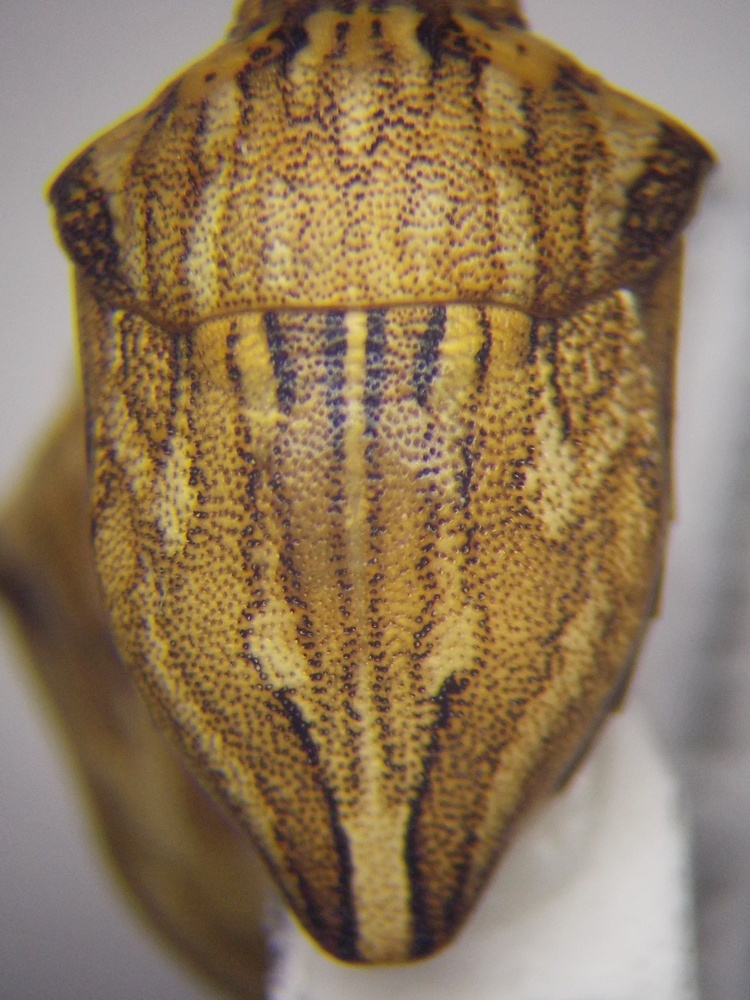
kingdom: Animalia
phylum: Arthropoda
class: Insecta
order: Hemiptera
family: Scutelleridae
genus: Odontotarsus
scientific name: Odontotarsus robustus
